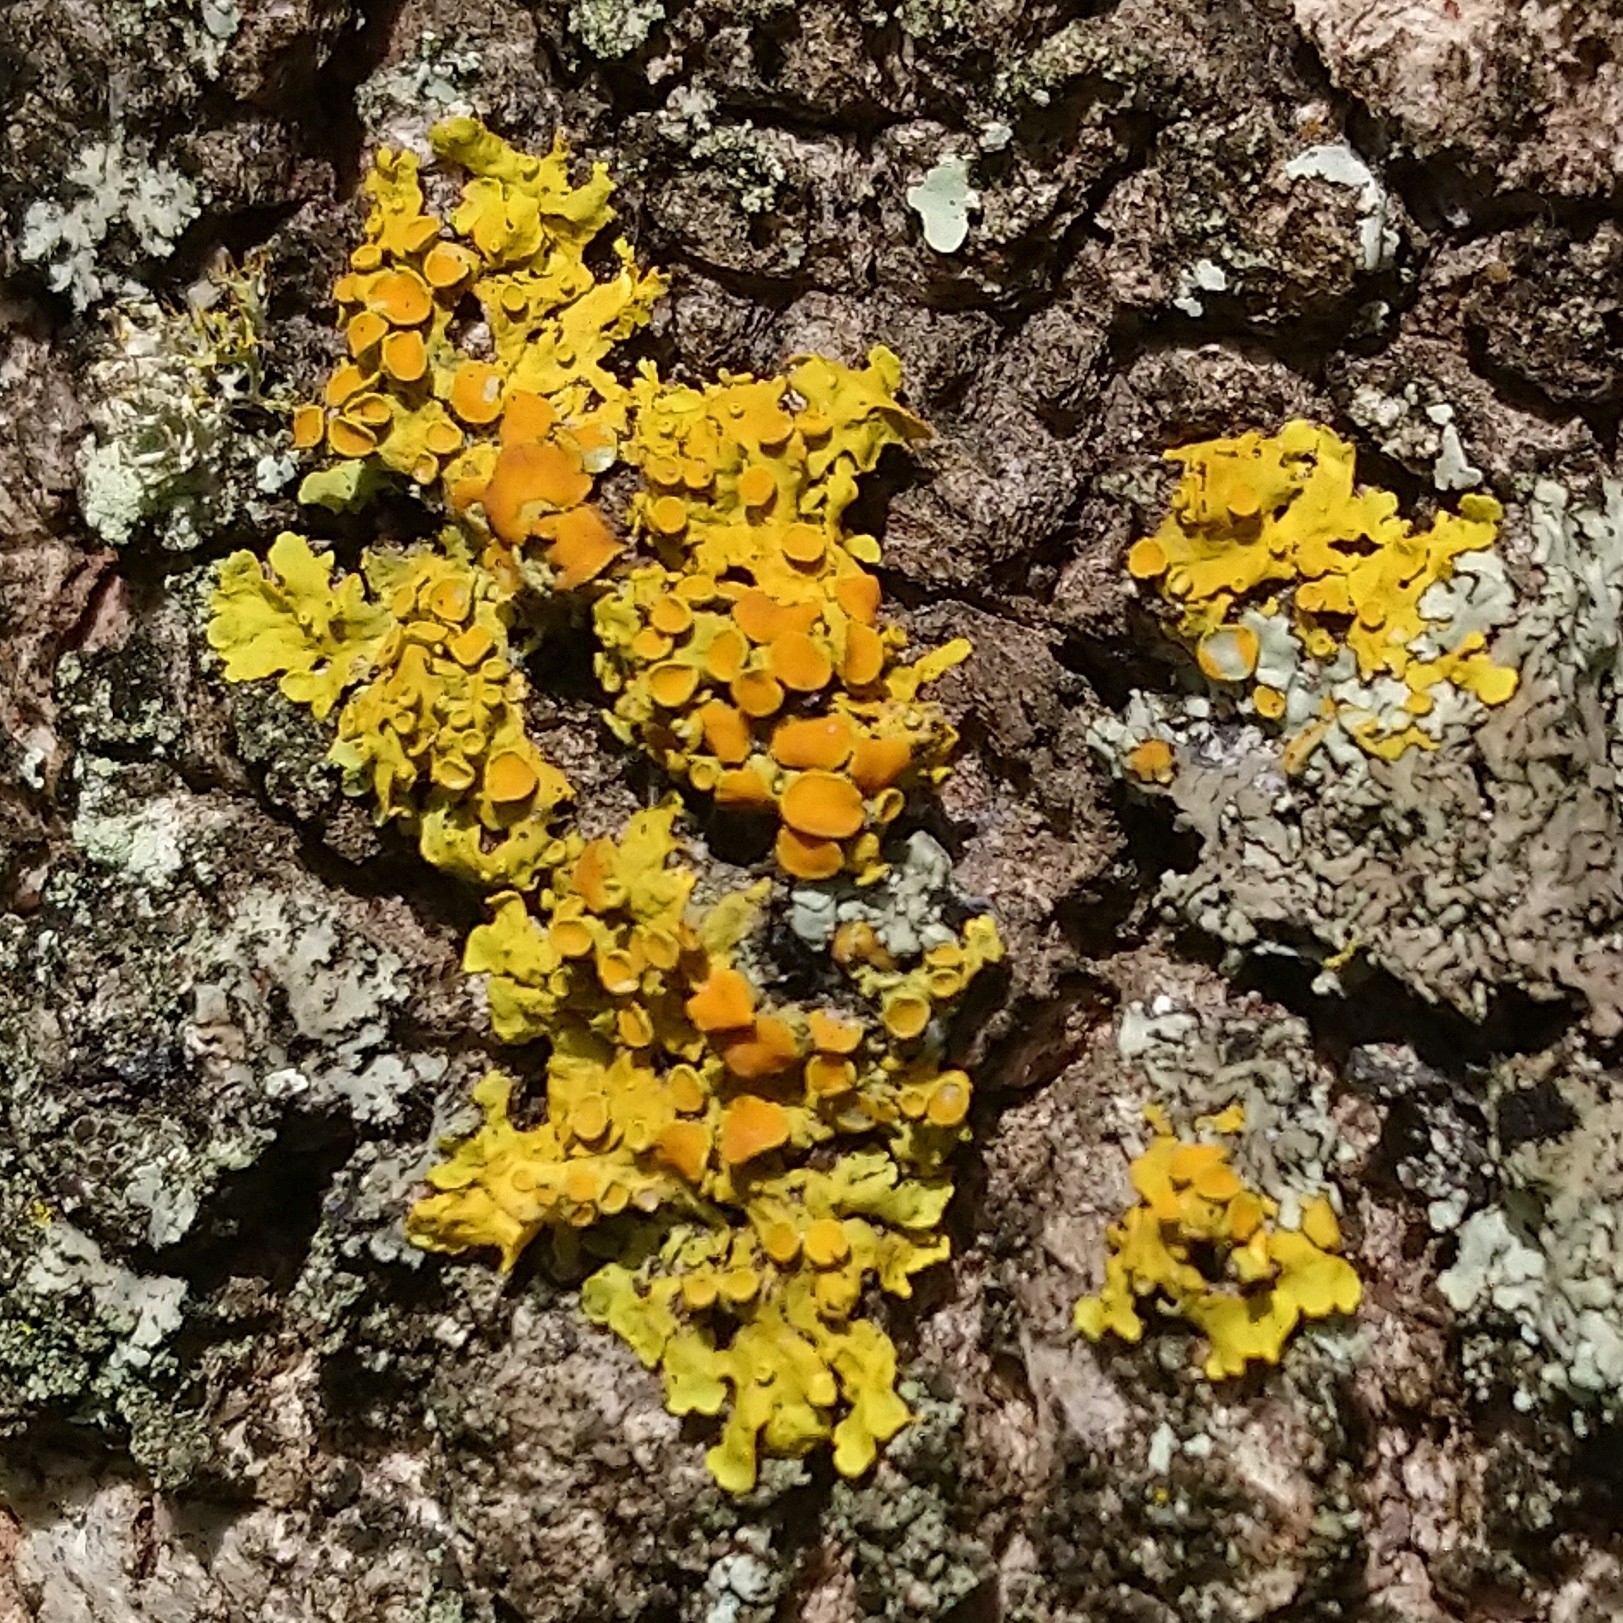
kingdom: Fungi
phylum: Ascomycota
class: Lecanoromycetes
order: Teloschistales
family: Teloschistaceae
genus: Xanthoria
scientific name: Xanthoria parietina
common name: Common orange lichen
